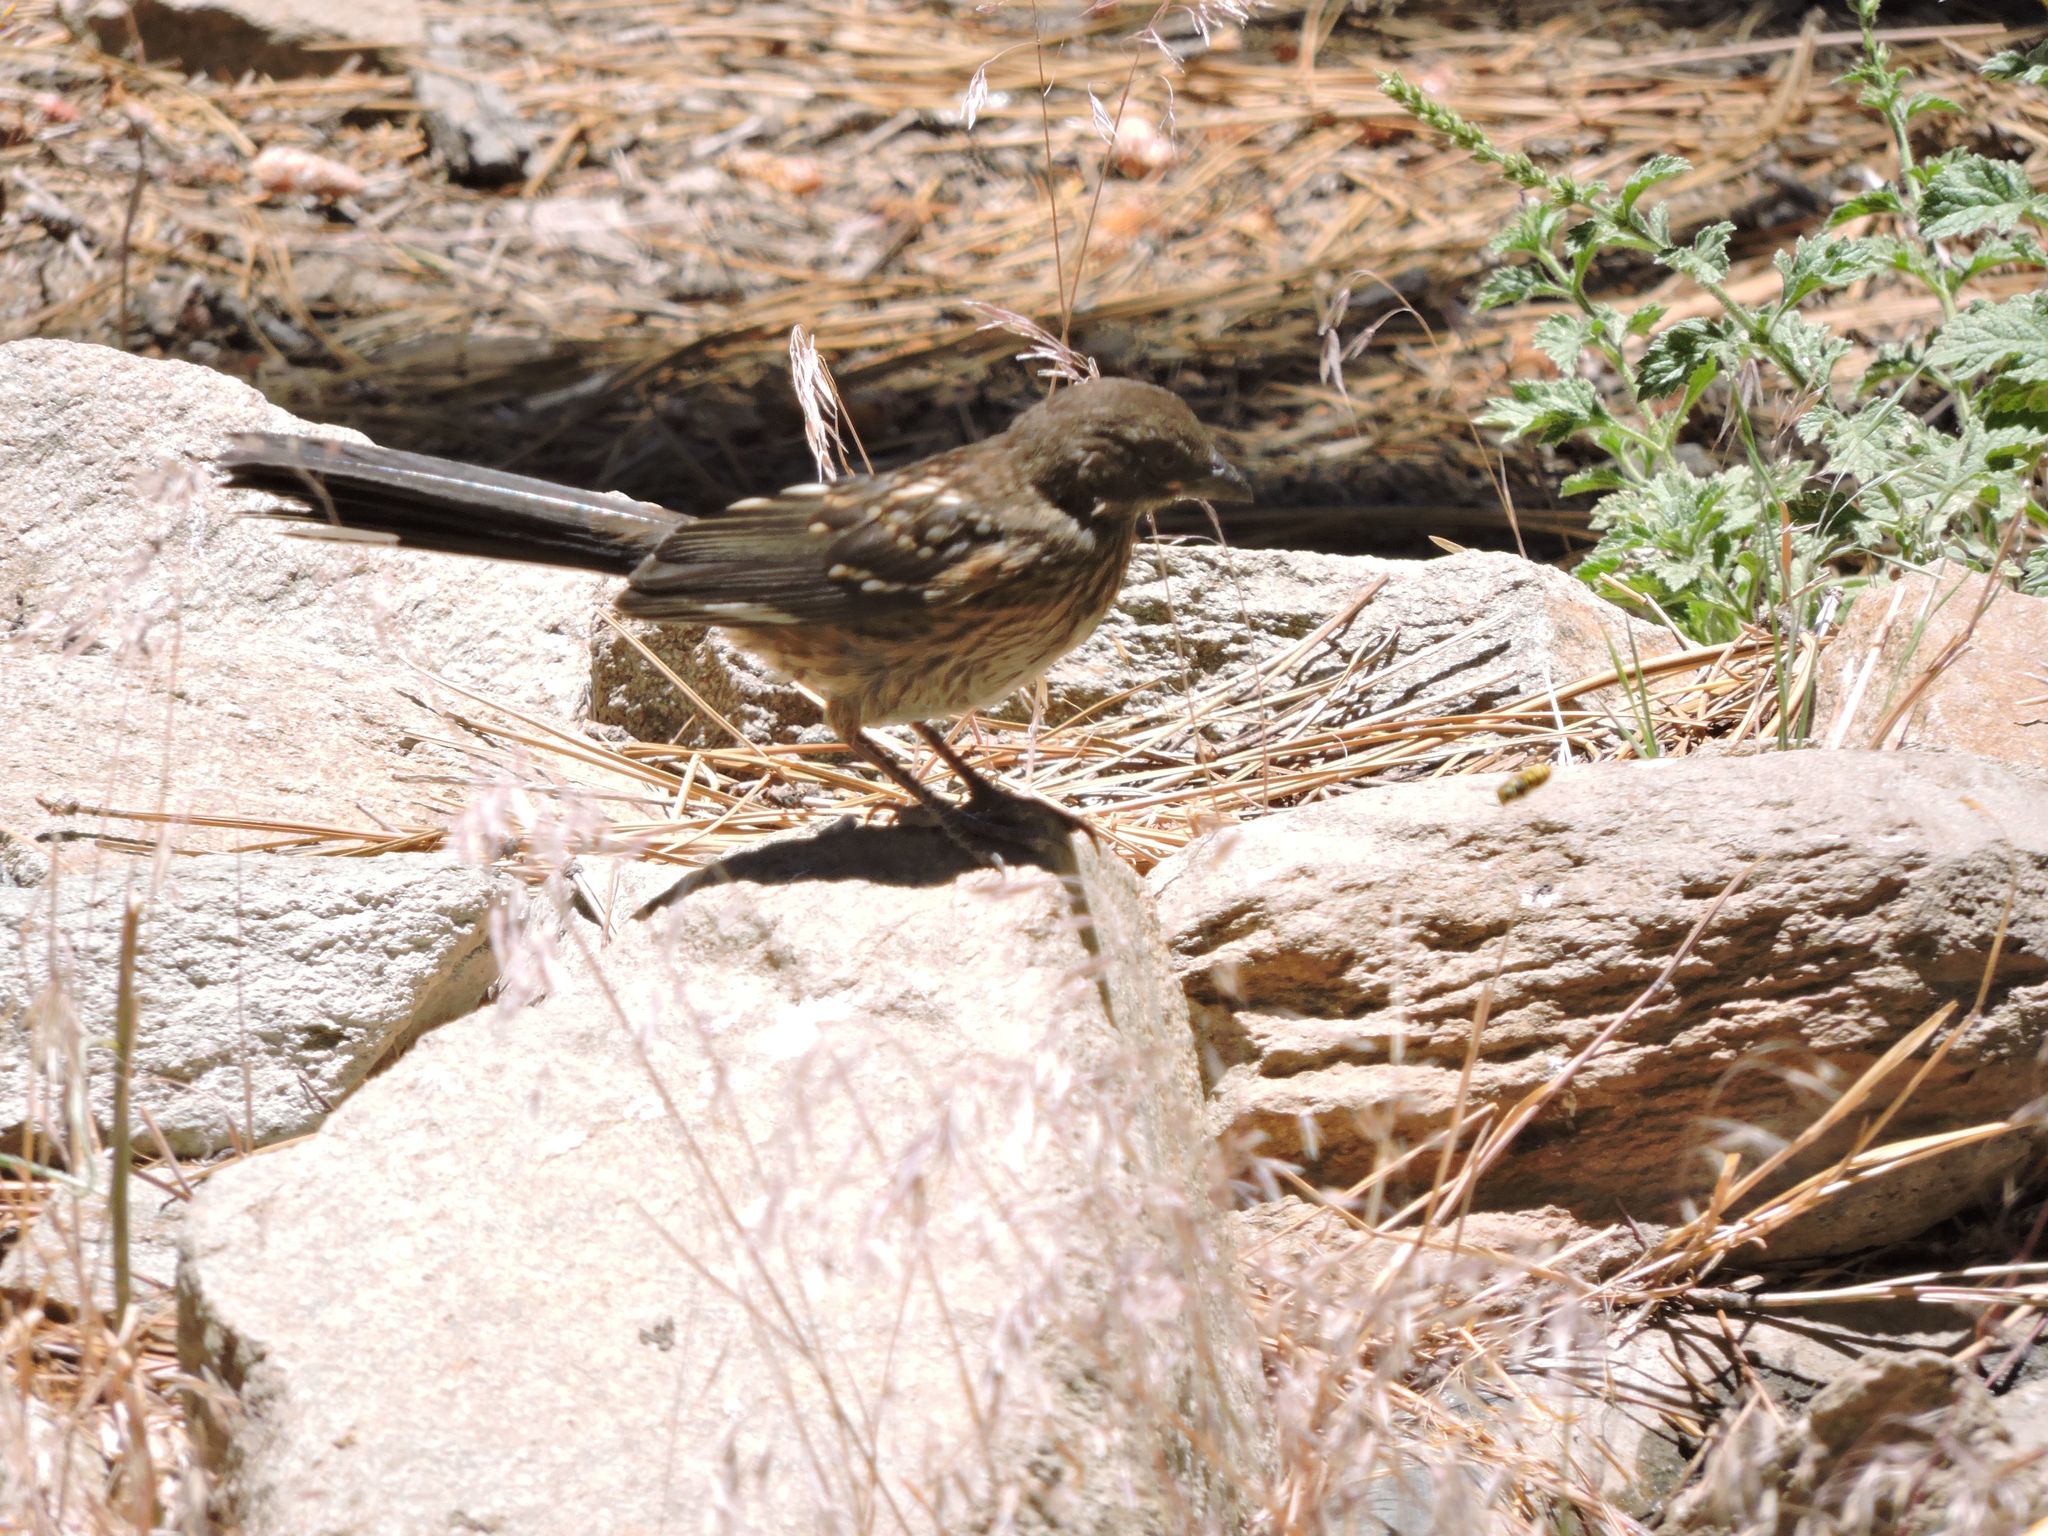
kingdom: Animalia
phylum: Chordata
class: Aves
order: Passeriformes
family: Passerellidae
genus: Pipilo
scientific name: Pipilo maculatus
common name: Spotted towhee
